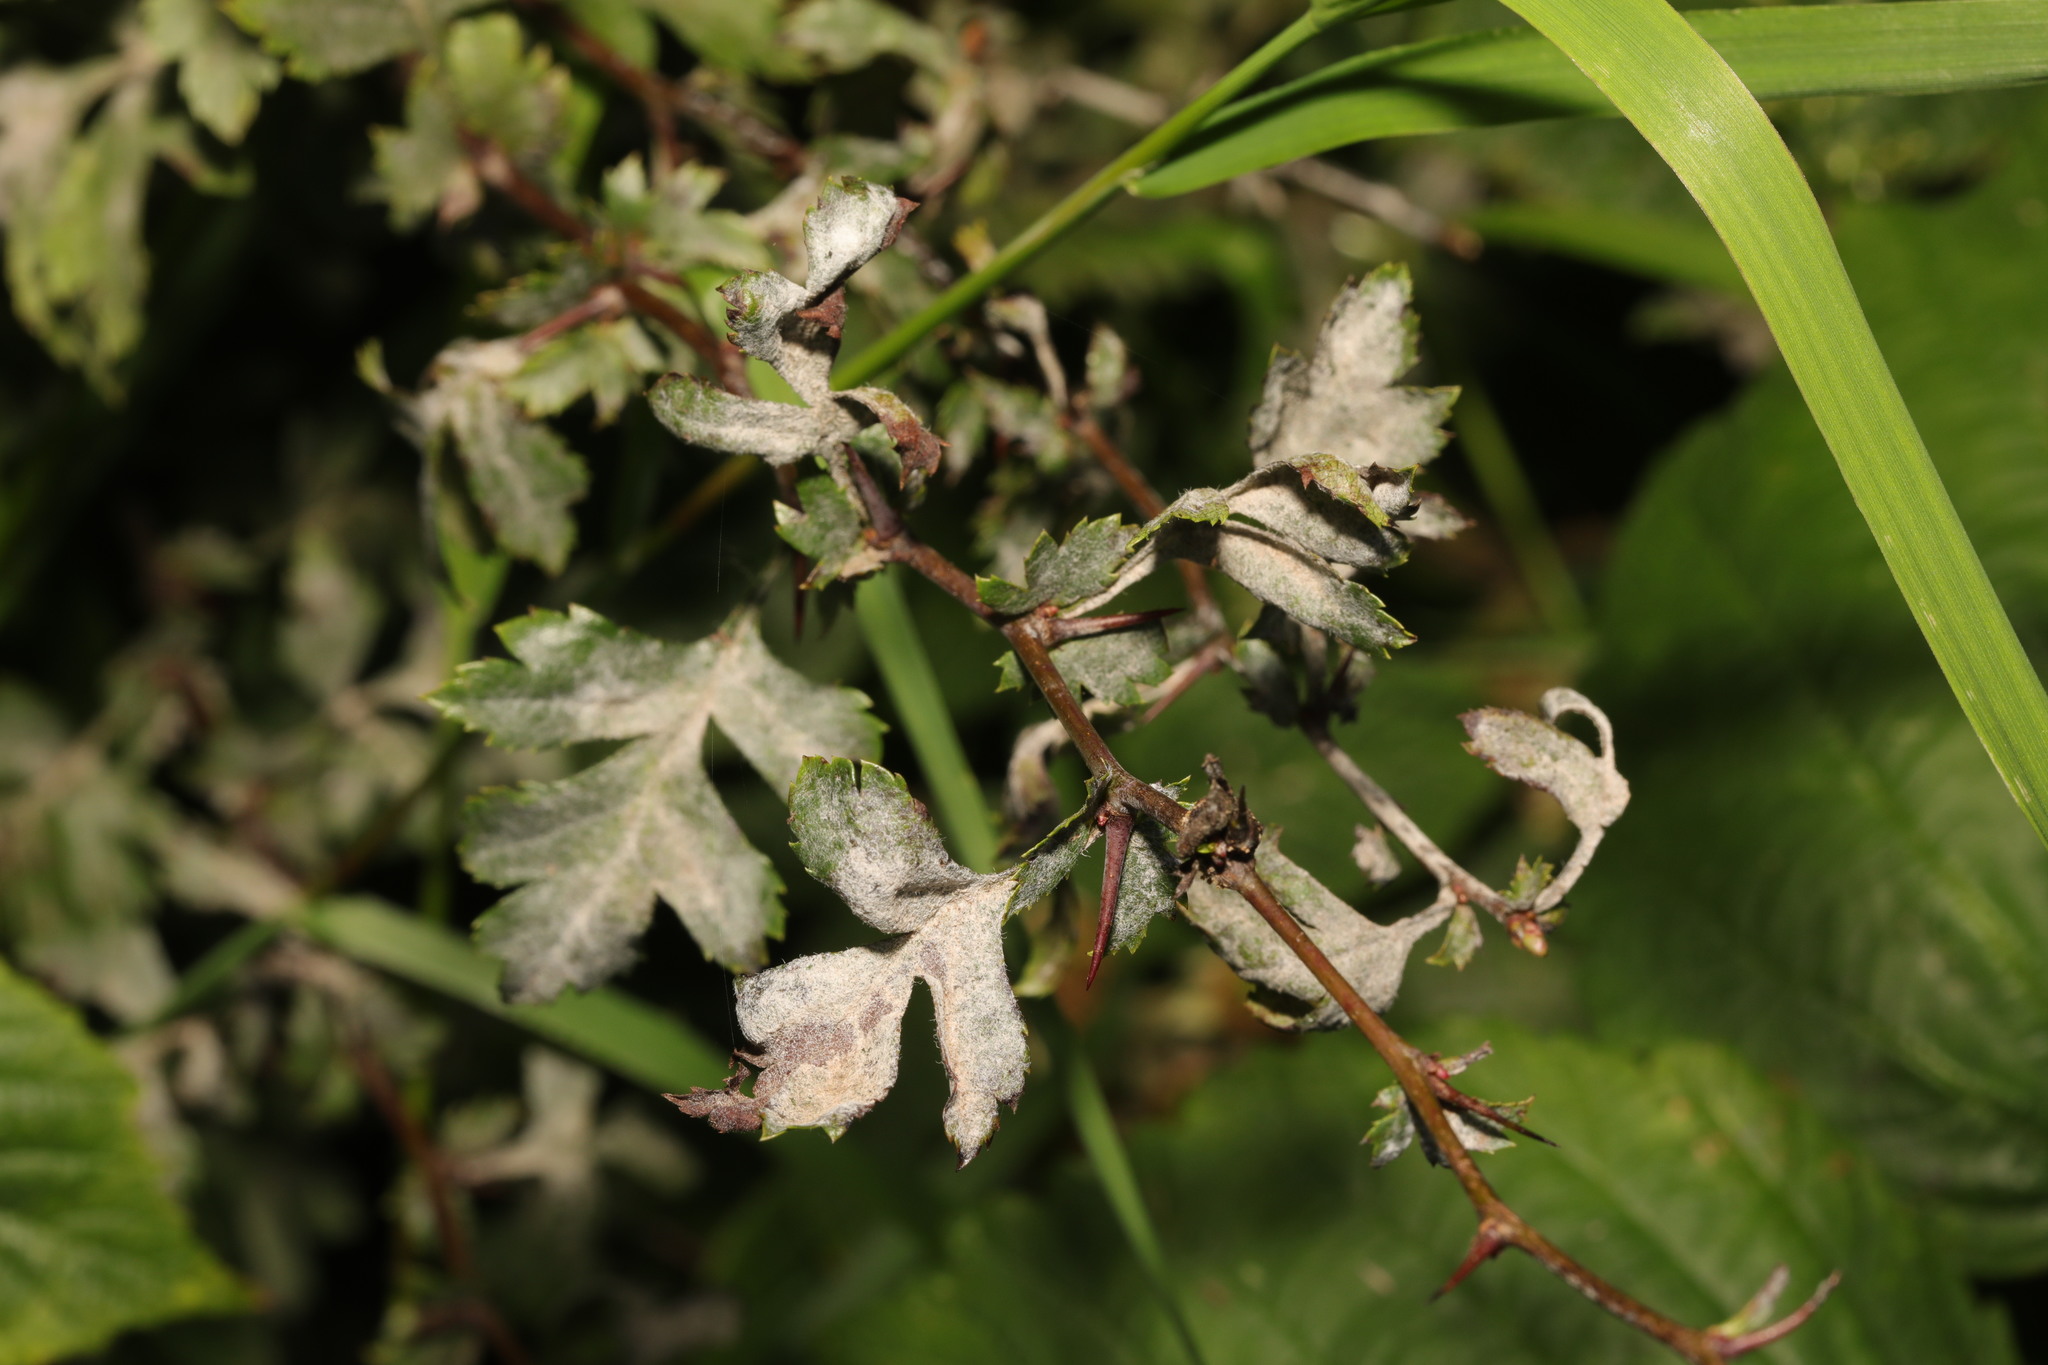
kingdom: Fungi
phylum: Ascomycota
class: Leotiomycetes
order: Helotiales
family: Erysiphaceae
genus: Podosphaera
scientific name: Podosphaera clandestina
